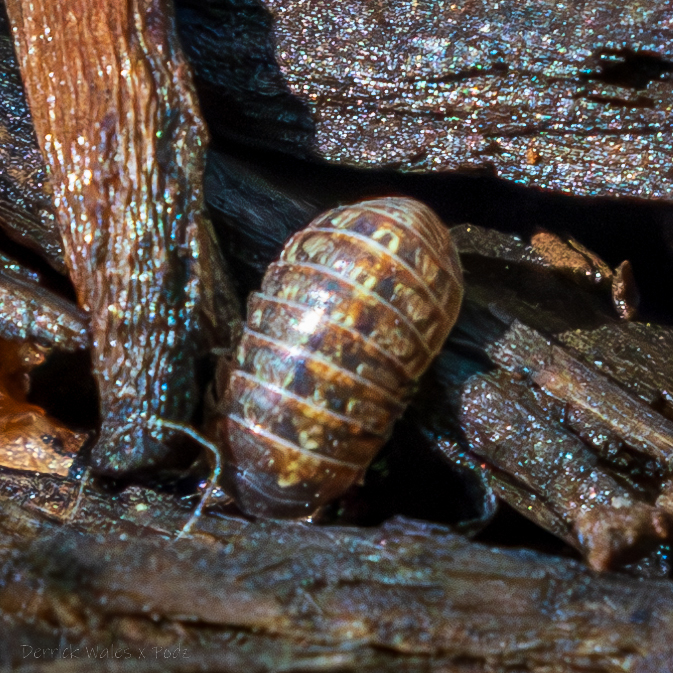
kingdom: Animalia
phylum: Arthropoda
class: Malacostraca
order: Isopoda
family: Armadillidiidae
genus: Armadillidium
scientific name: Armadillidium vulgare
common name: Common pill woodlouse
